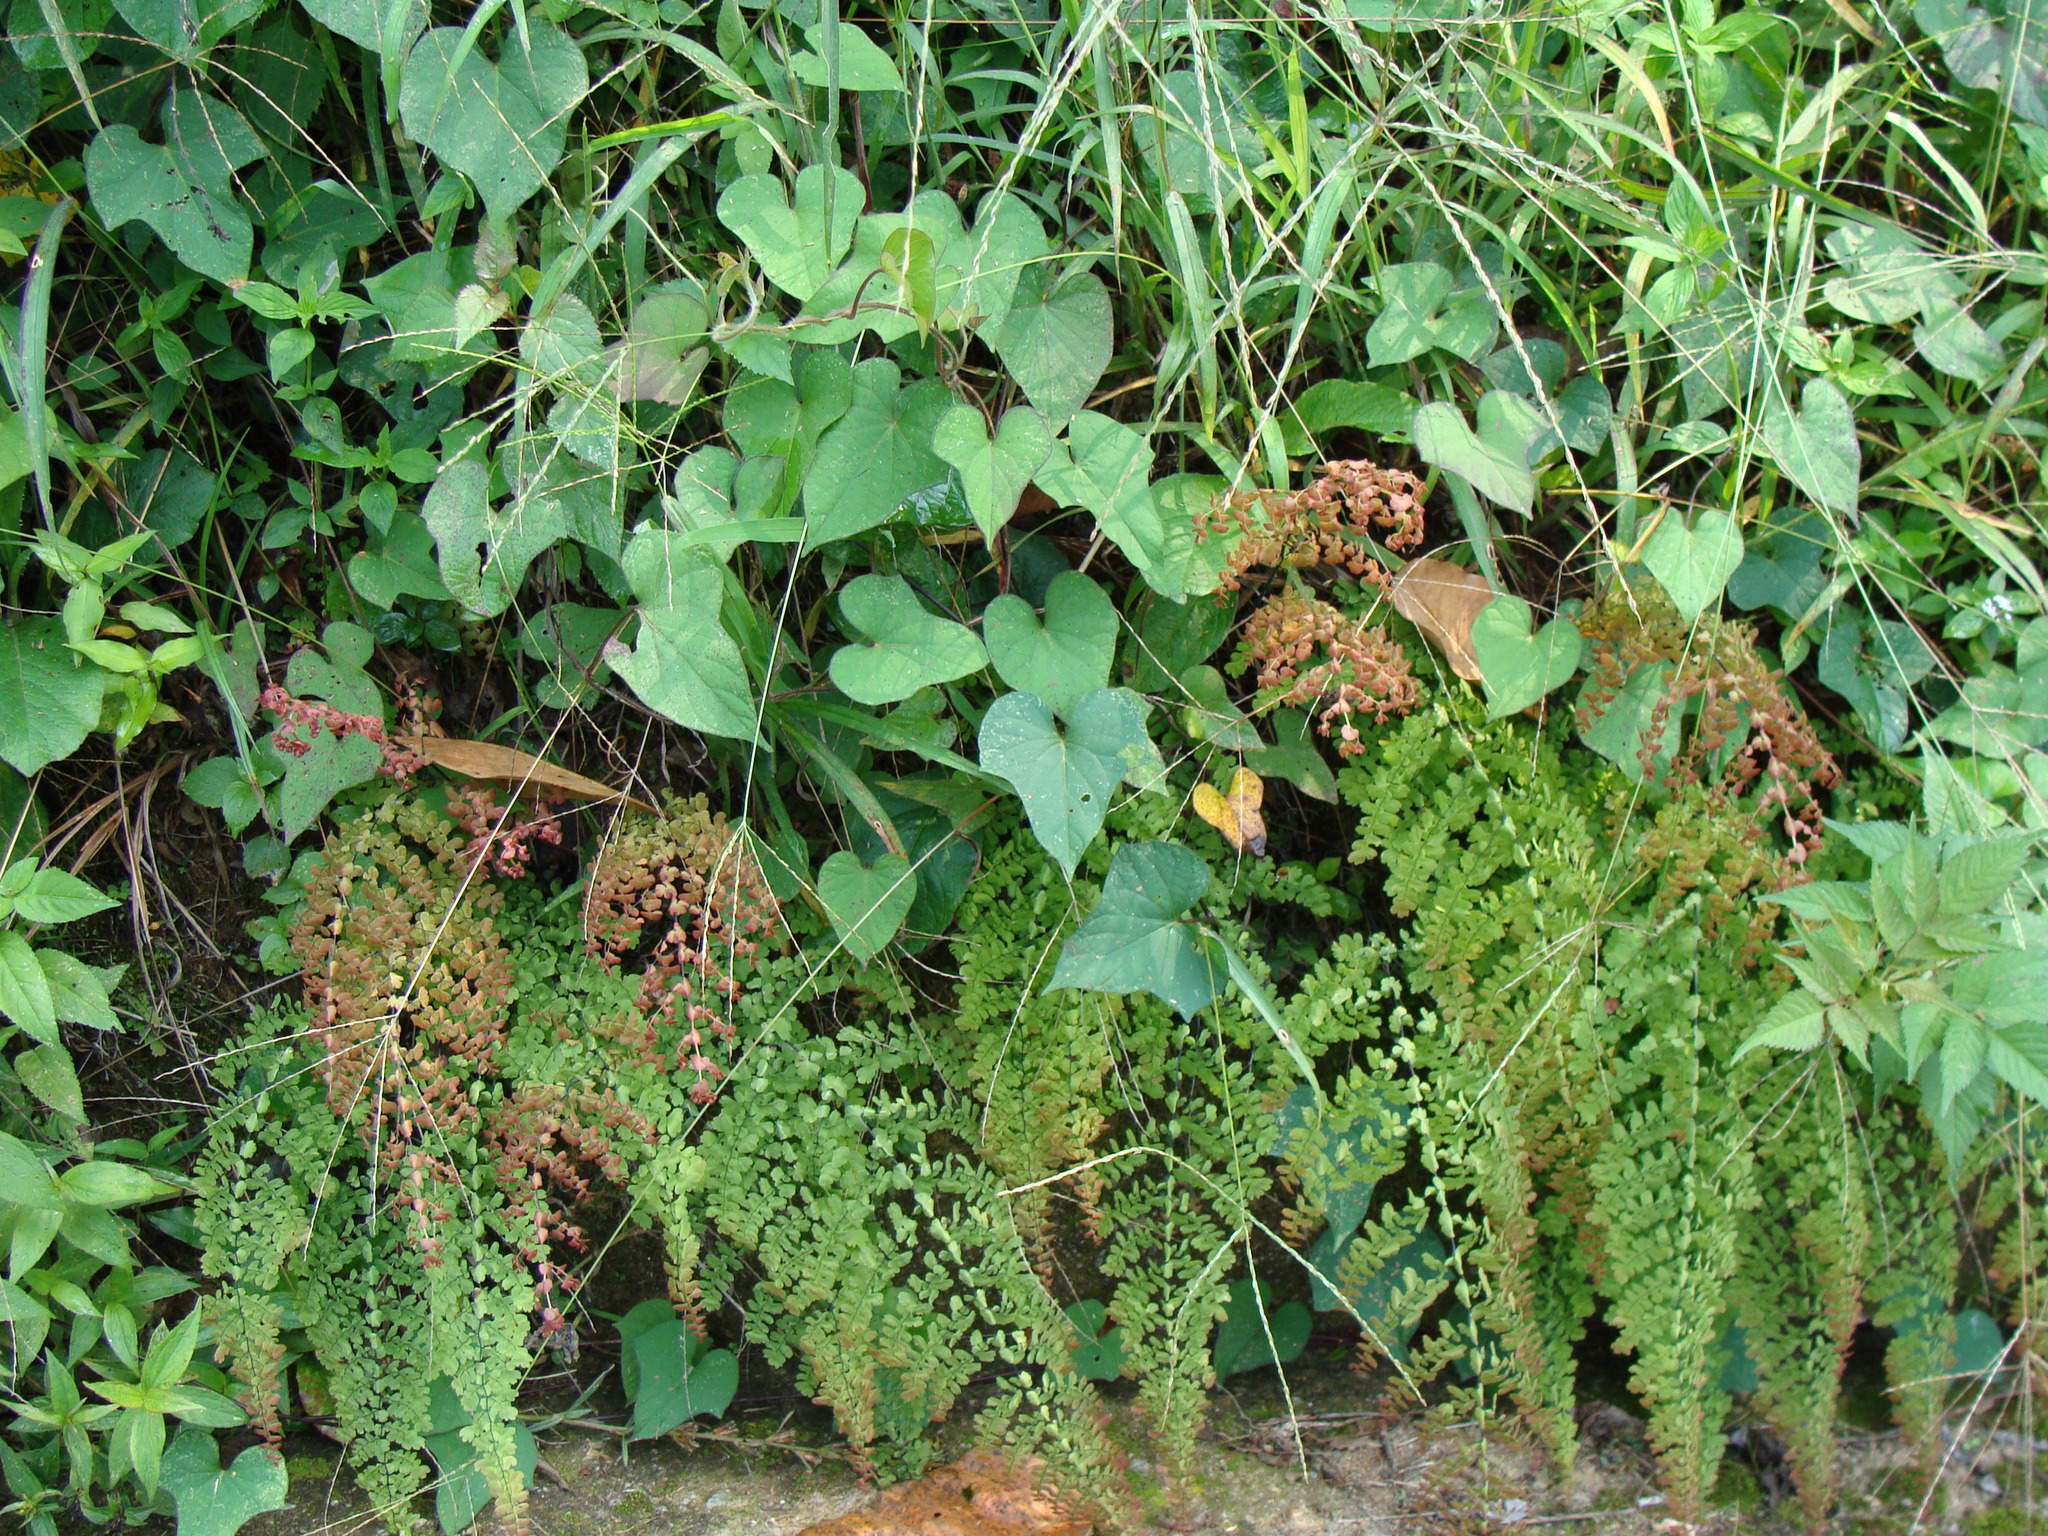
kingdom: Plantae
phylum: Tracheophyta
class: Polypodiopsida
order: Polypodiales
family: Pteridaceae
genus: Adiantum
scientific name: Adiantum concinnum
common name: Brittle maidenhair fern
